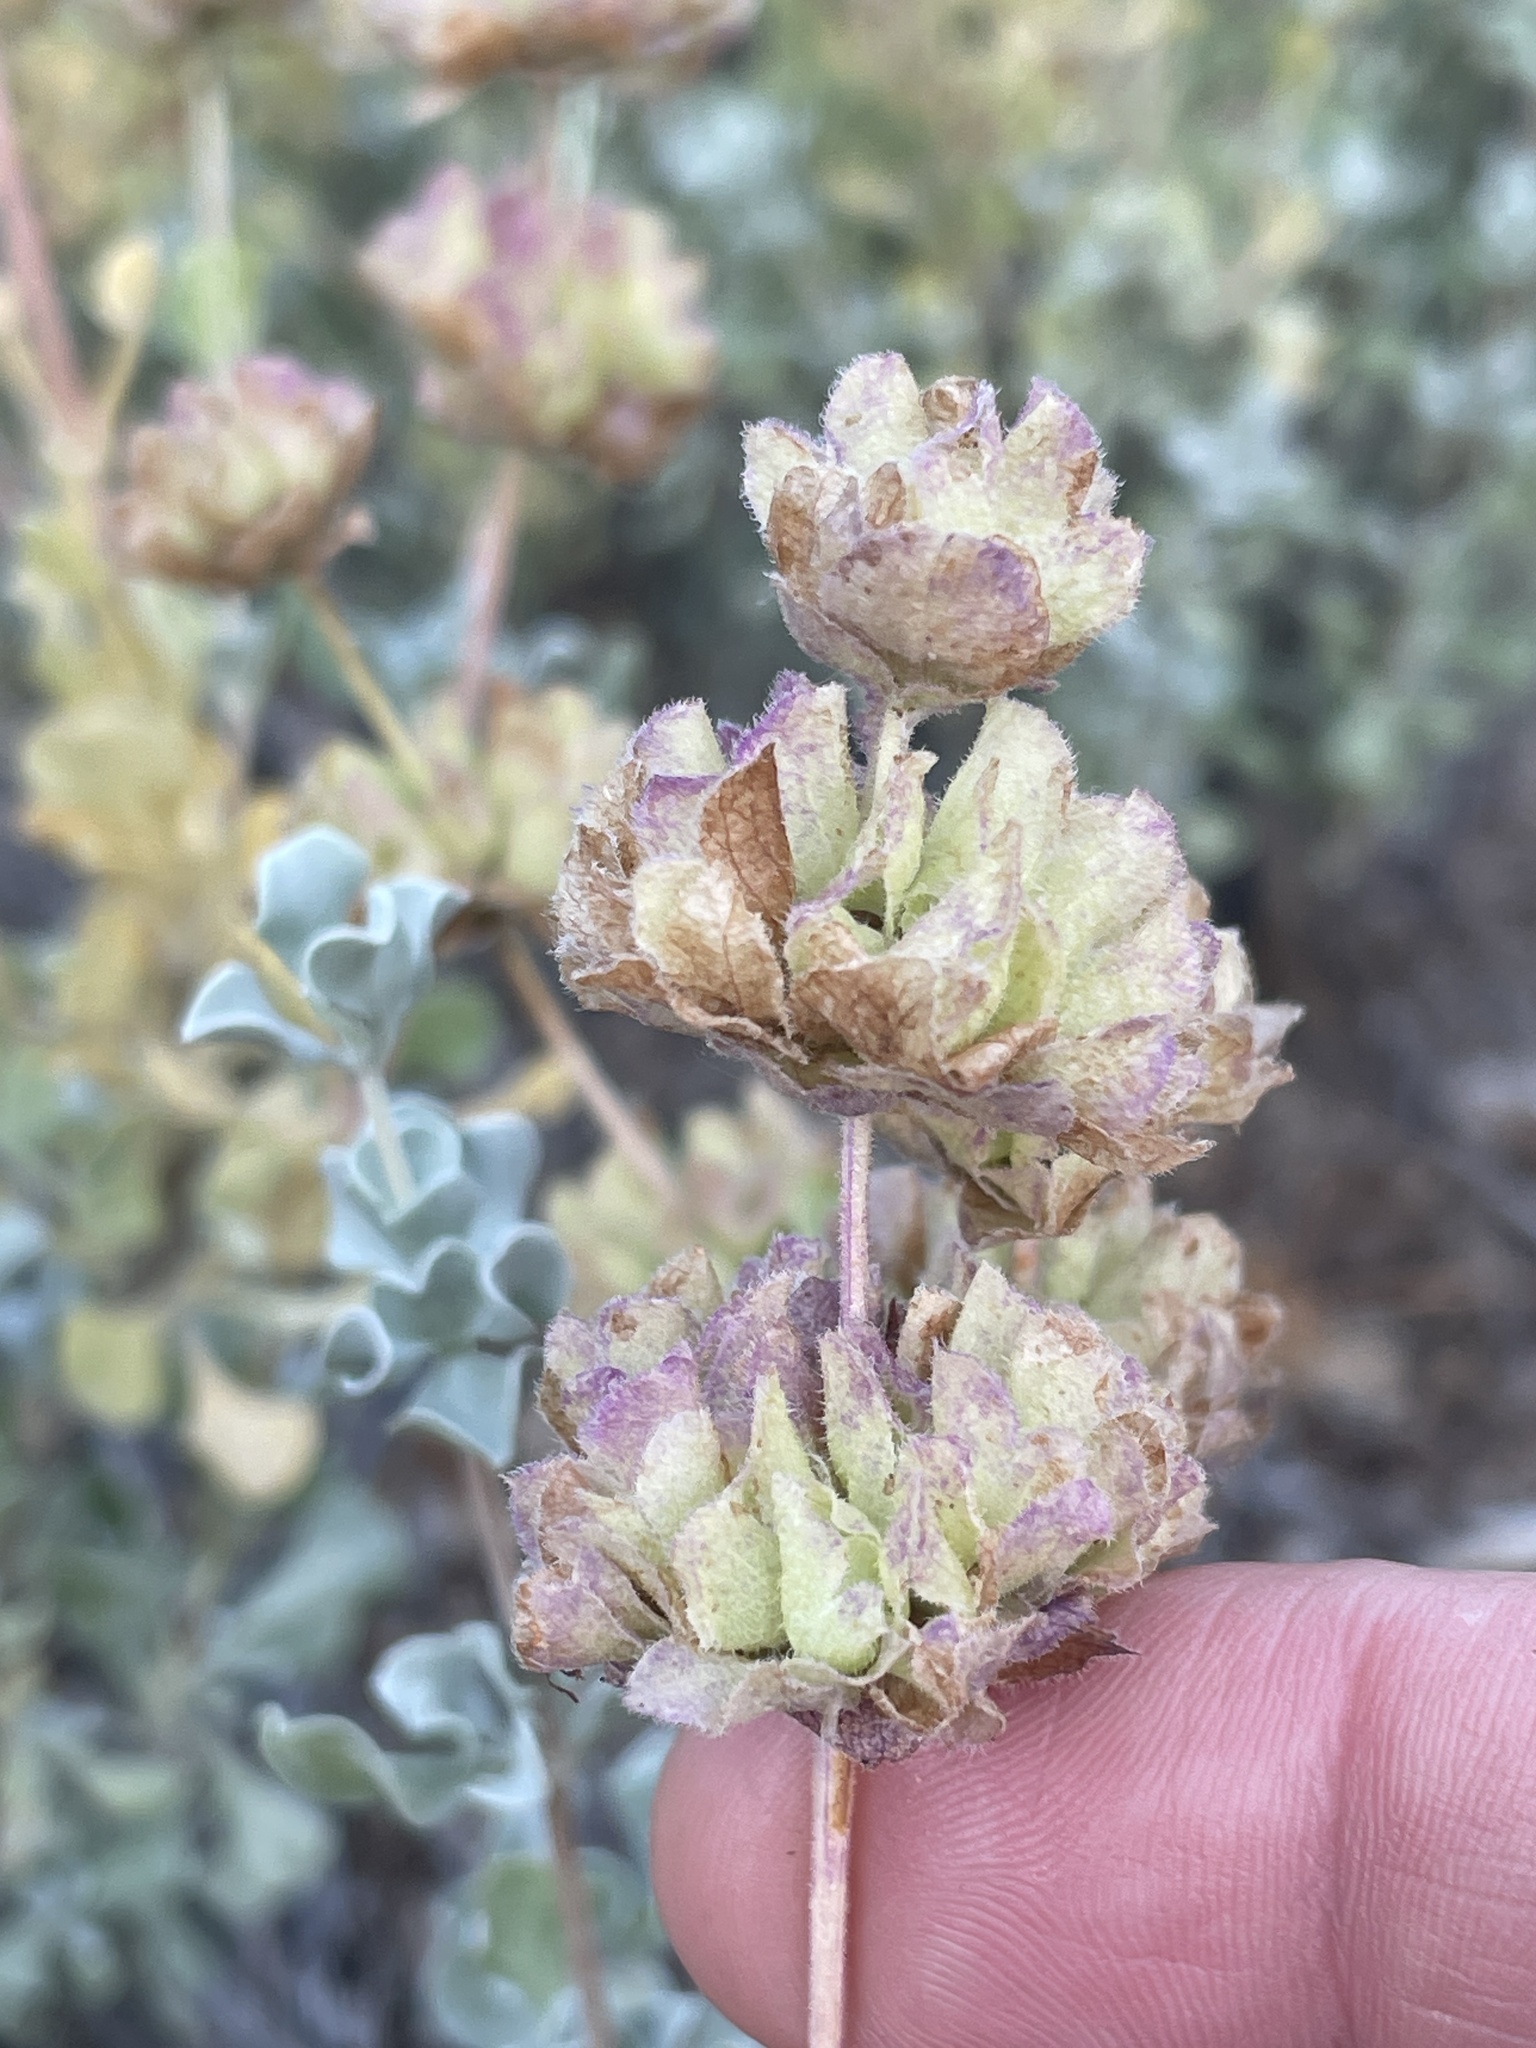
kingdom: Plantae
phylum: Tracheophyta
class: Magnoliopsida
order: Lamiales
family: Lamiaceae
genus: Salvia
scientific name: Salvia dorrii
